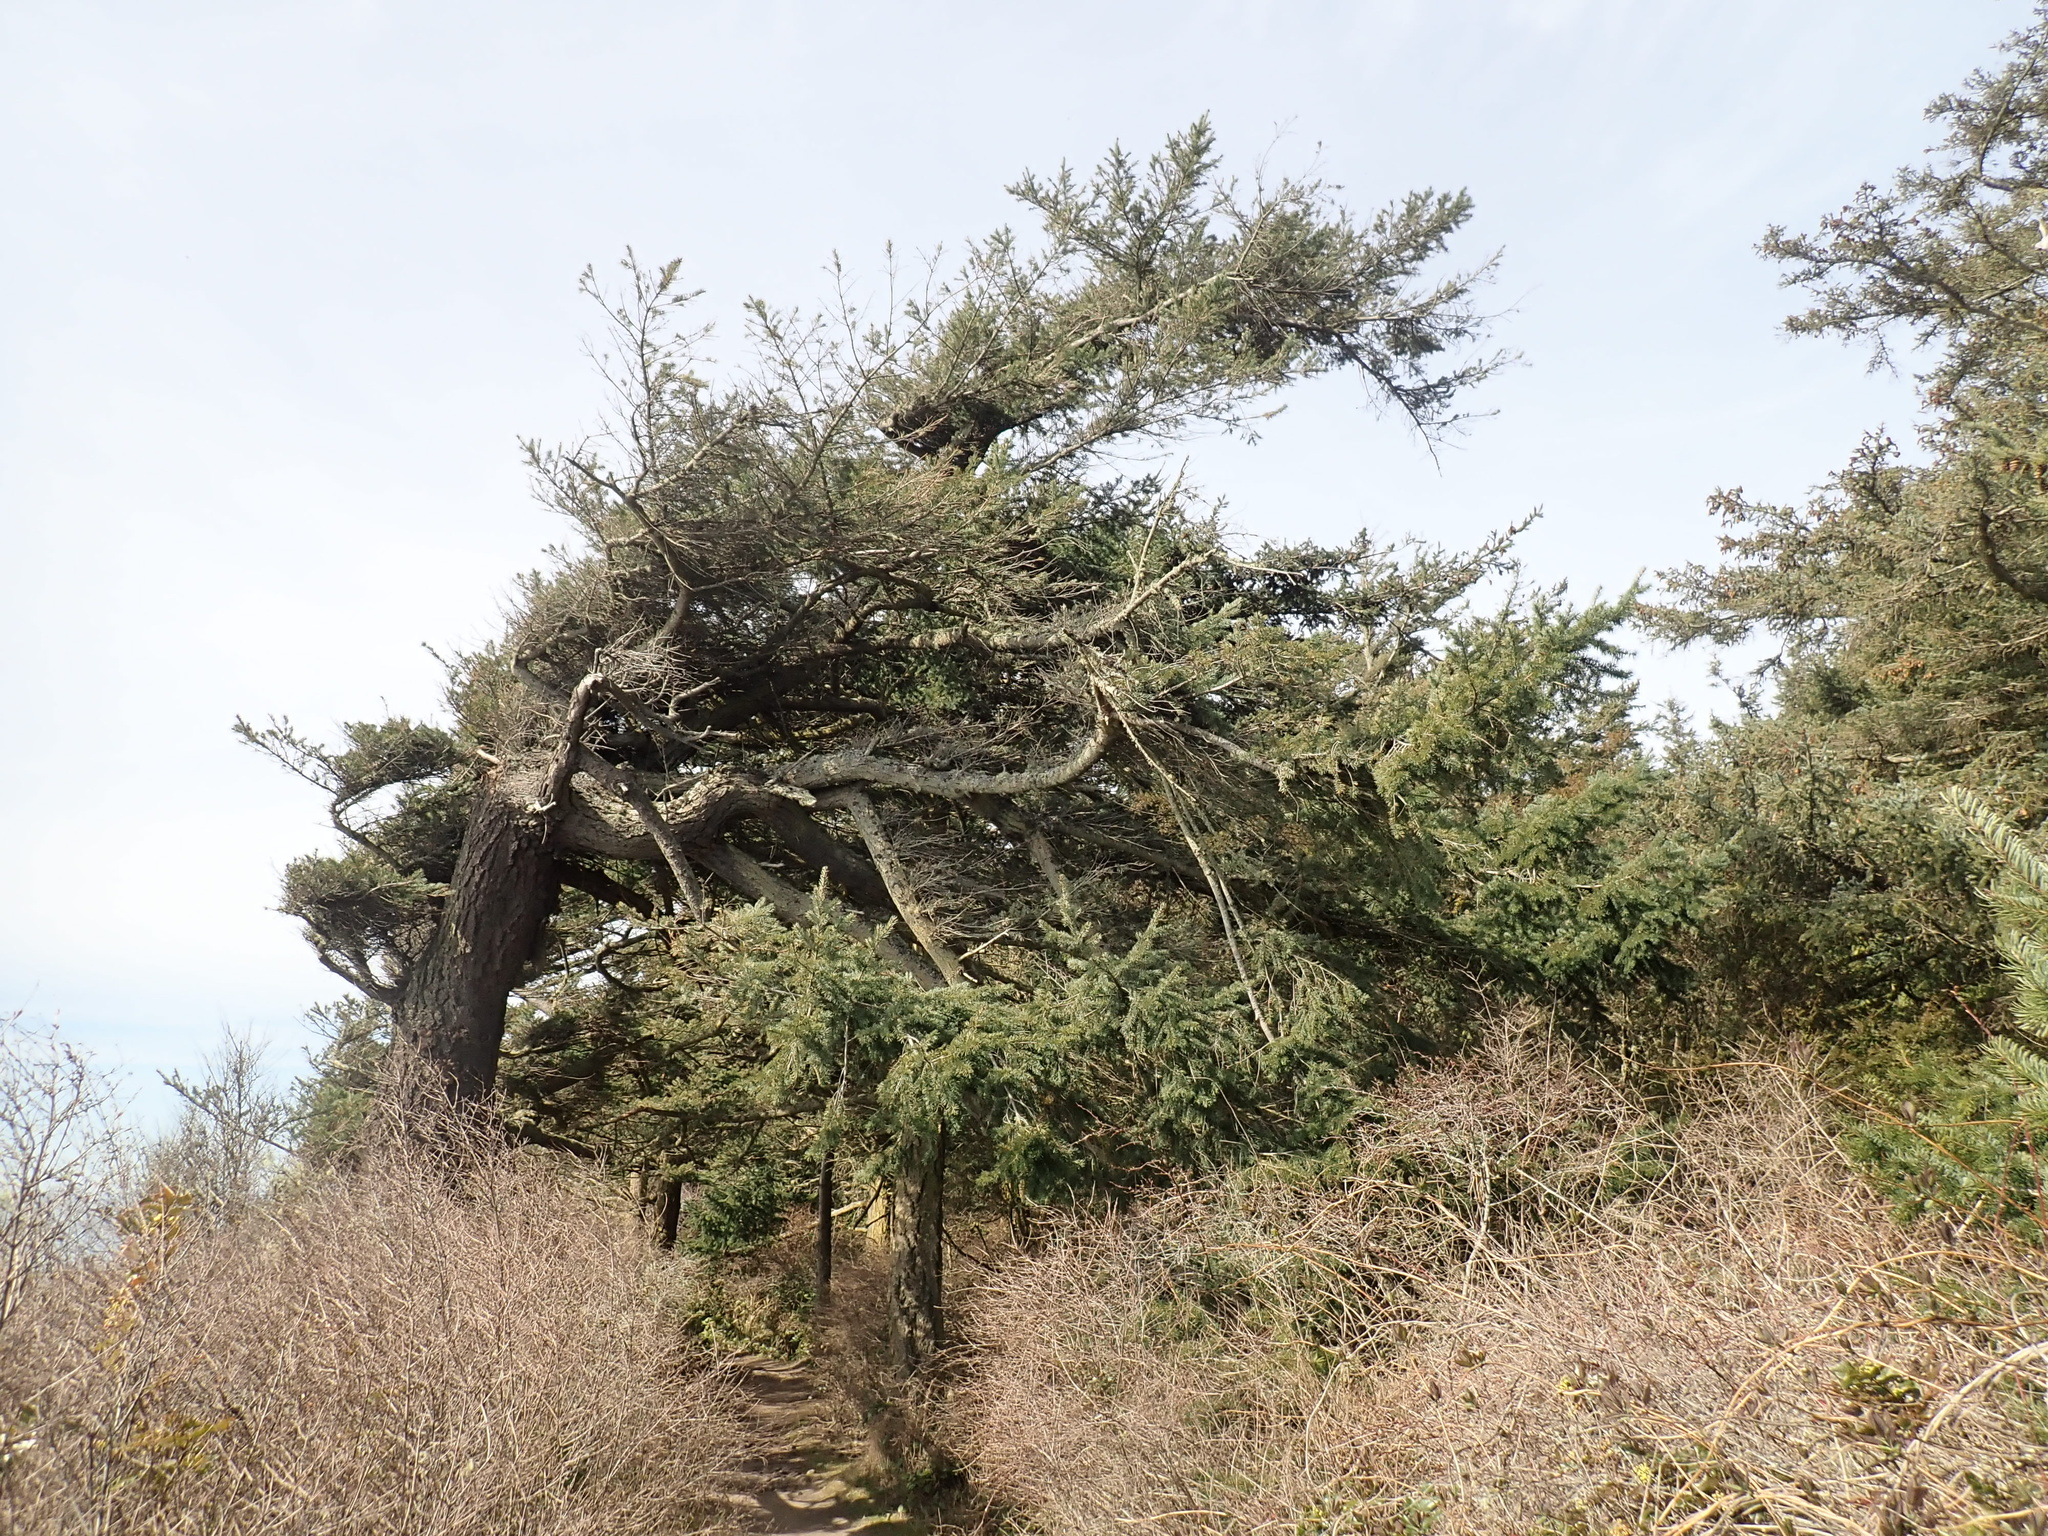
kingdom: Plantae
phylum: Tracheophyta
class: Pinopsida
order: Pinales
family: Pinaceae
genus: Pseudotsuga
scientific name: Pseudotsuga menziesii
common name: Douglas fir
